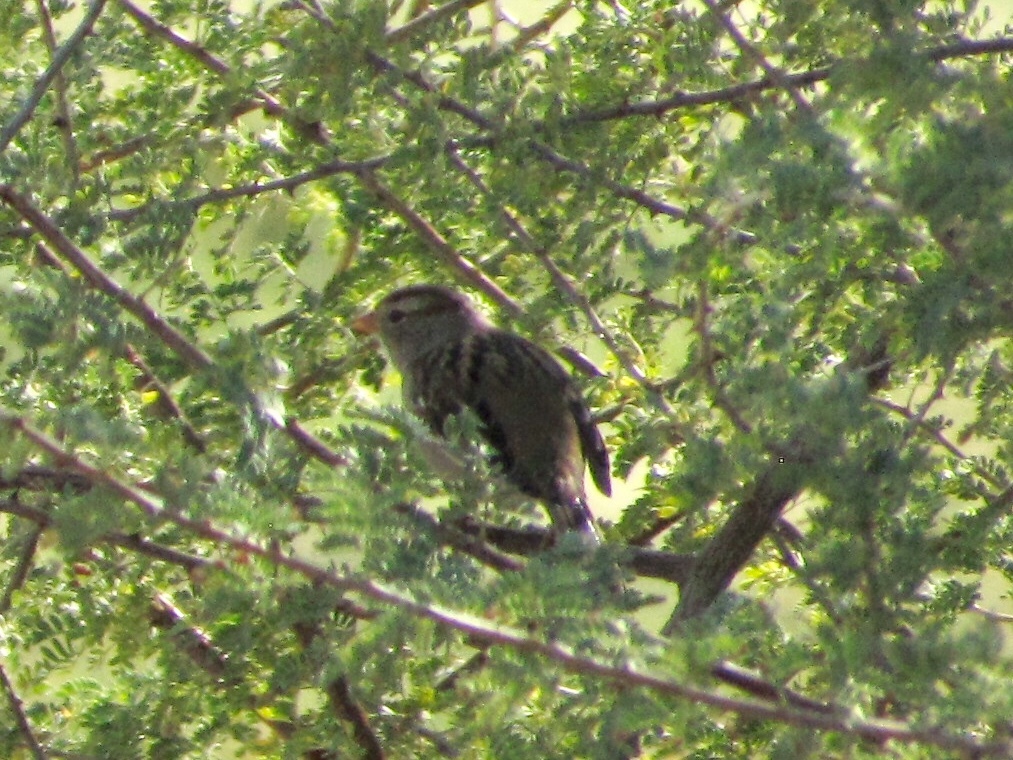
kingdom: Animalia
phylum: Chordata
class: Aves
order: Passeriformes
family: Passerellidae
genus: Zonotrichia
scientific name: Zonotrichia leucophrys
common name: White-crowned sparrow
